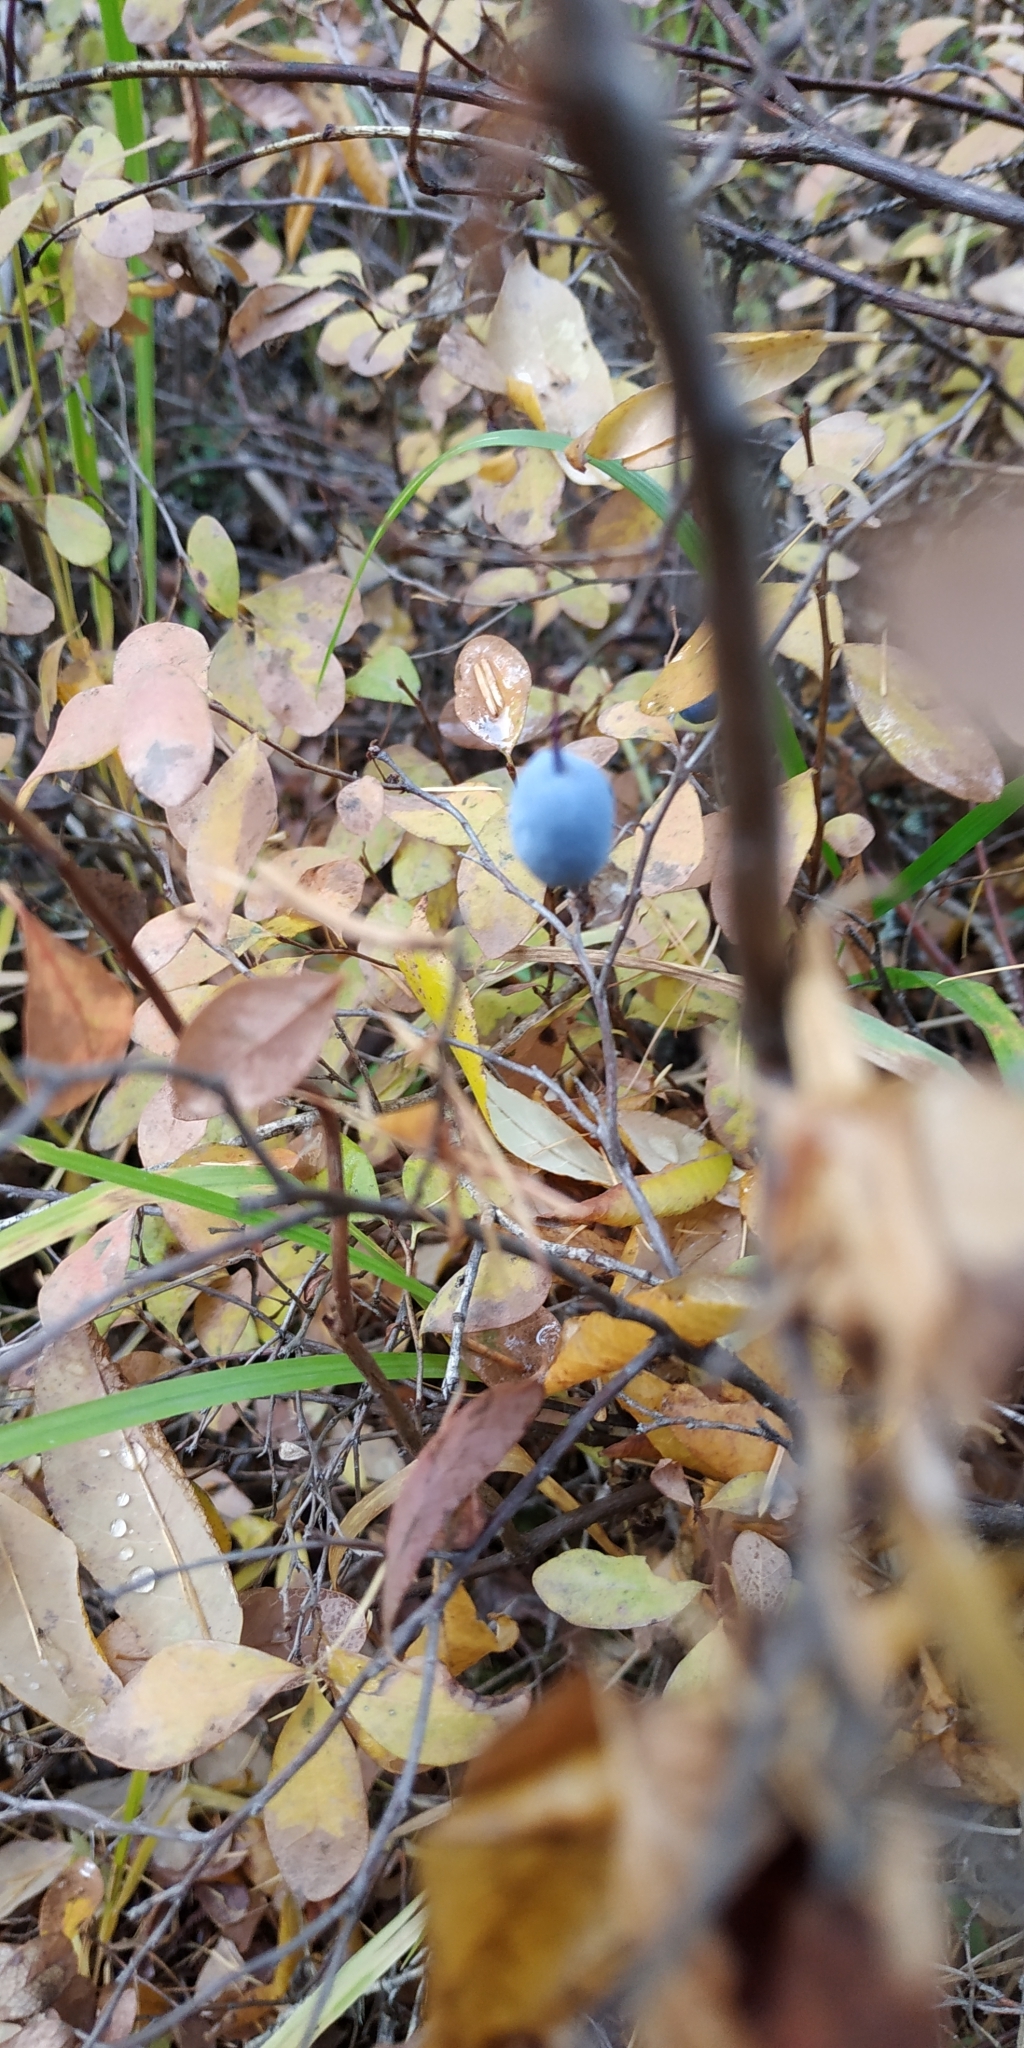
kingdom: Plantae
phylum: Tracheophyta
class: Magnoliopsida
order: Ericales
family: Ericaceae
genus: Vaccinium
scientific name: Vaccinium uliginosum
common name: Bog bilberry
